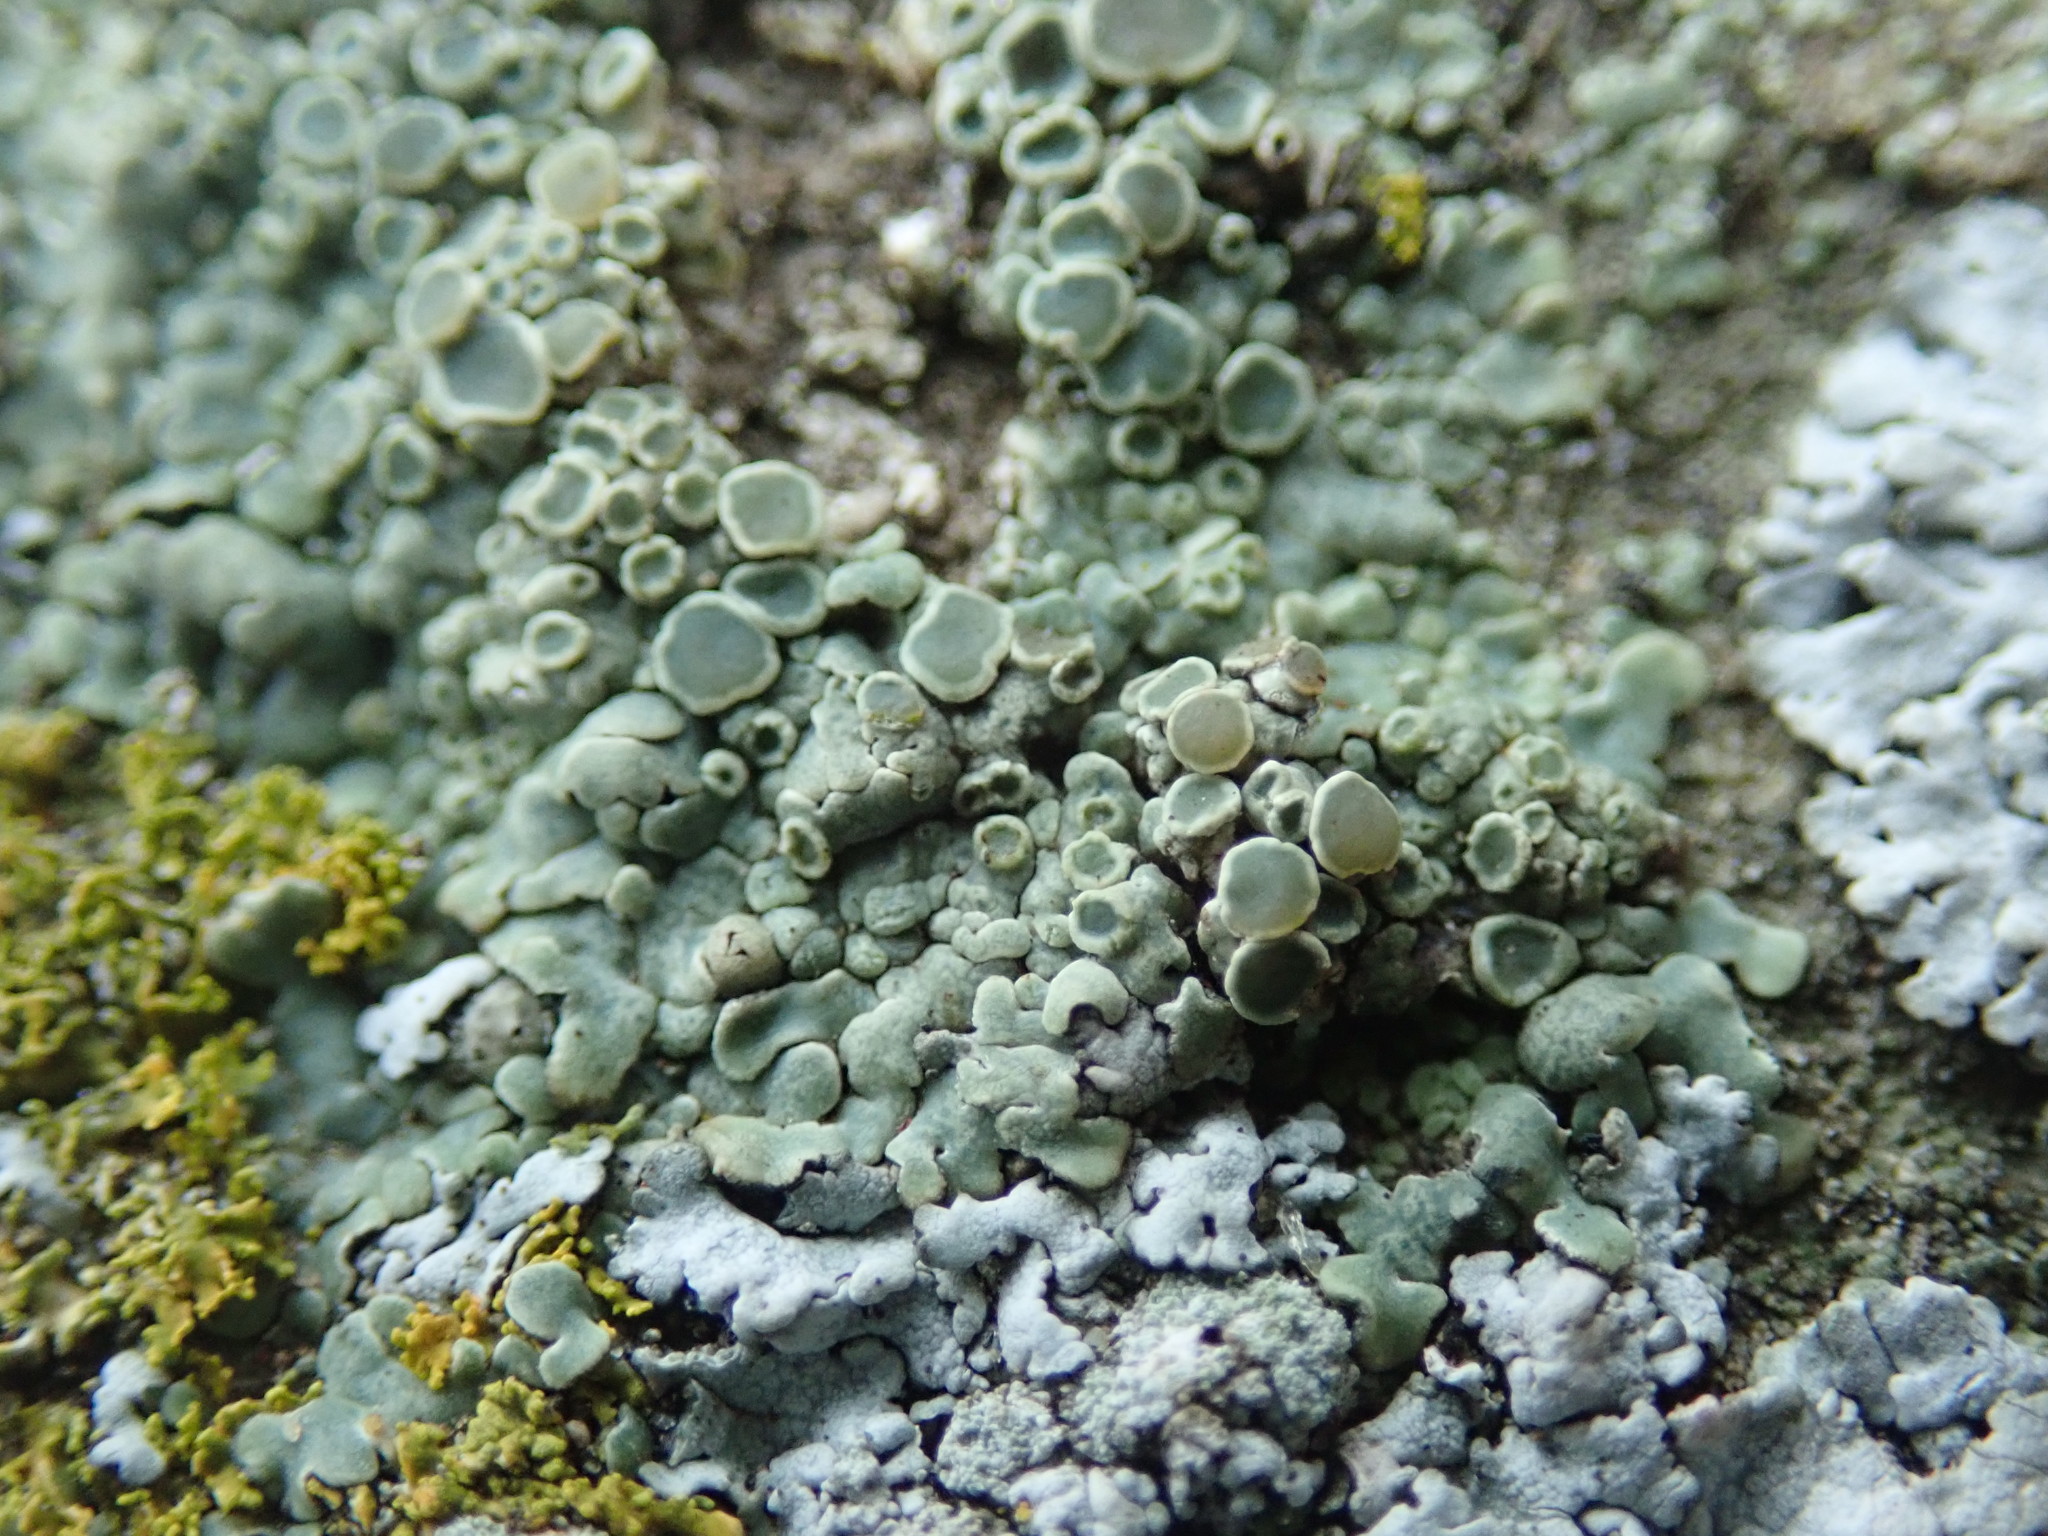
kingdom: Fungi
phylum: Ascomycota
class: Lecanoromycetes
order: Lecanorales
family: Lecanoraceae
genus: Protoparmeliopsis
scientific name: Protoparmeliopsis muralis
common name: Stonewall rim lichen
